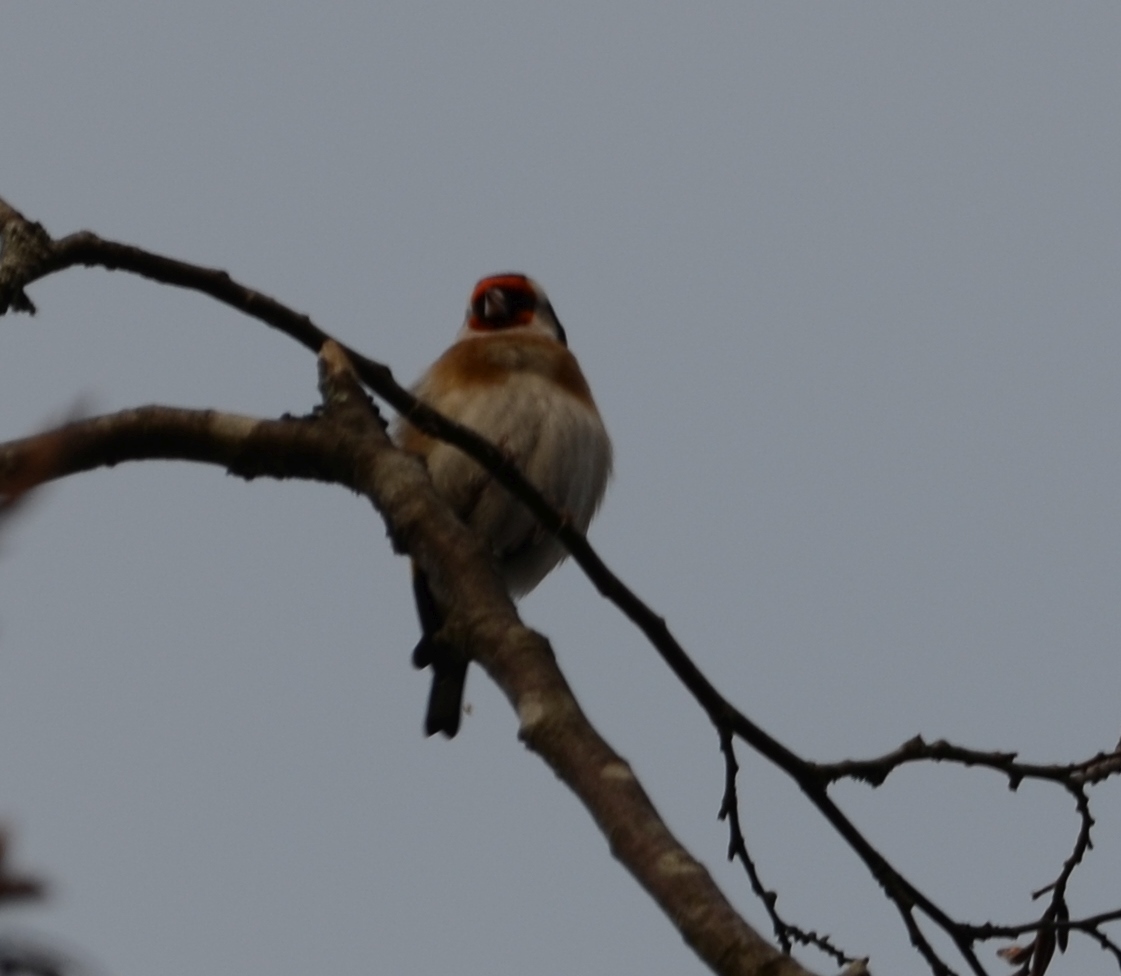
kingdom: Animalia
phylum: Chordata
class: Aves
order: Passeriformes
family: Fringillidae
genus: Carduelis
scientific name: Carduelis carduelis
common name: European goldfinch
